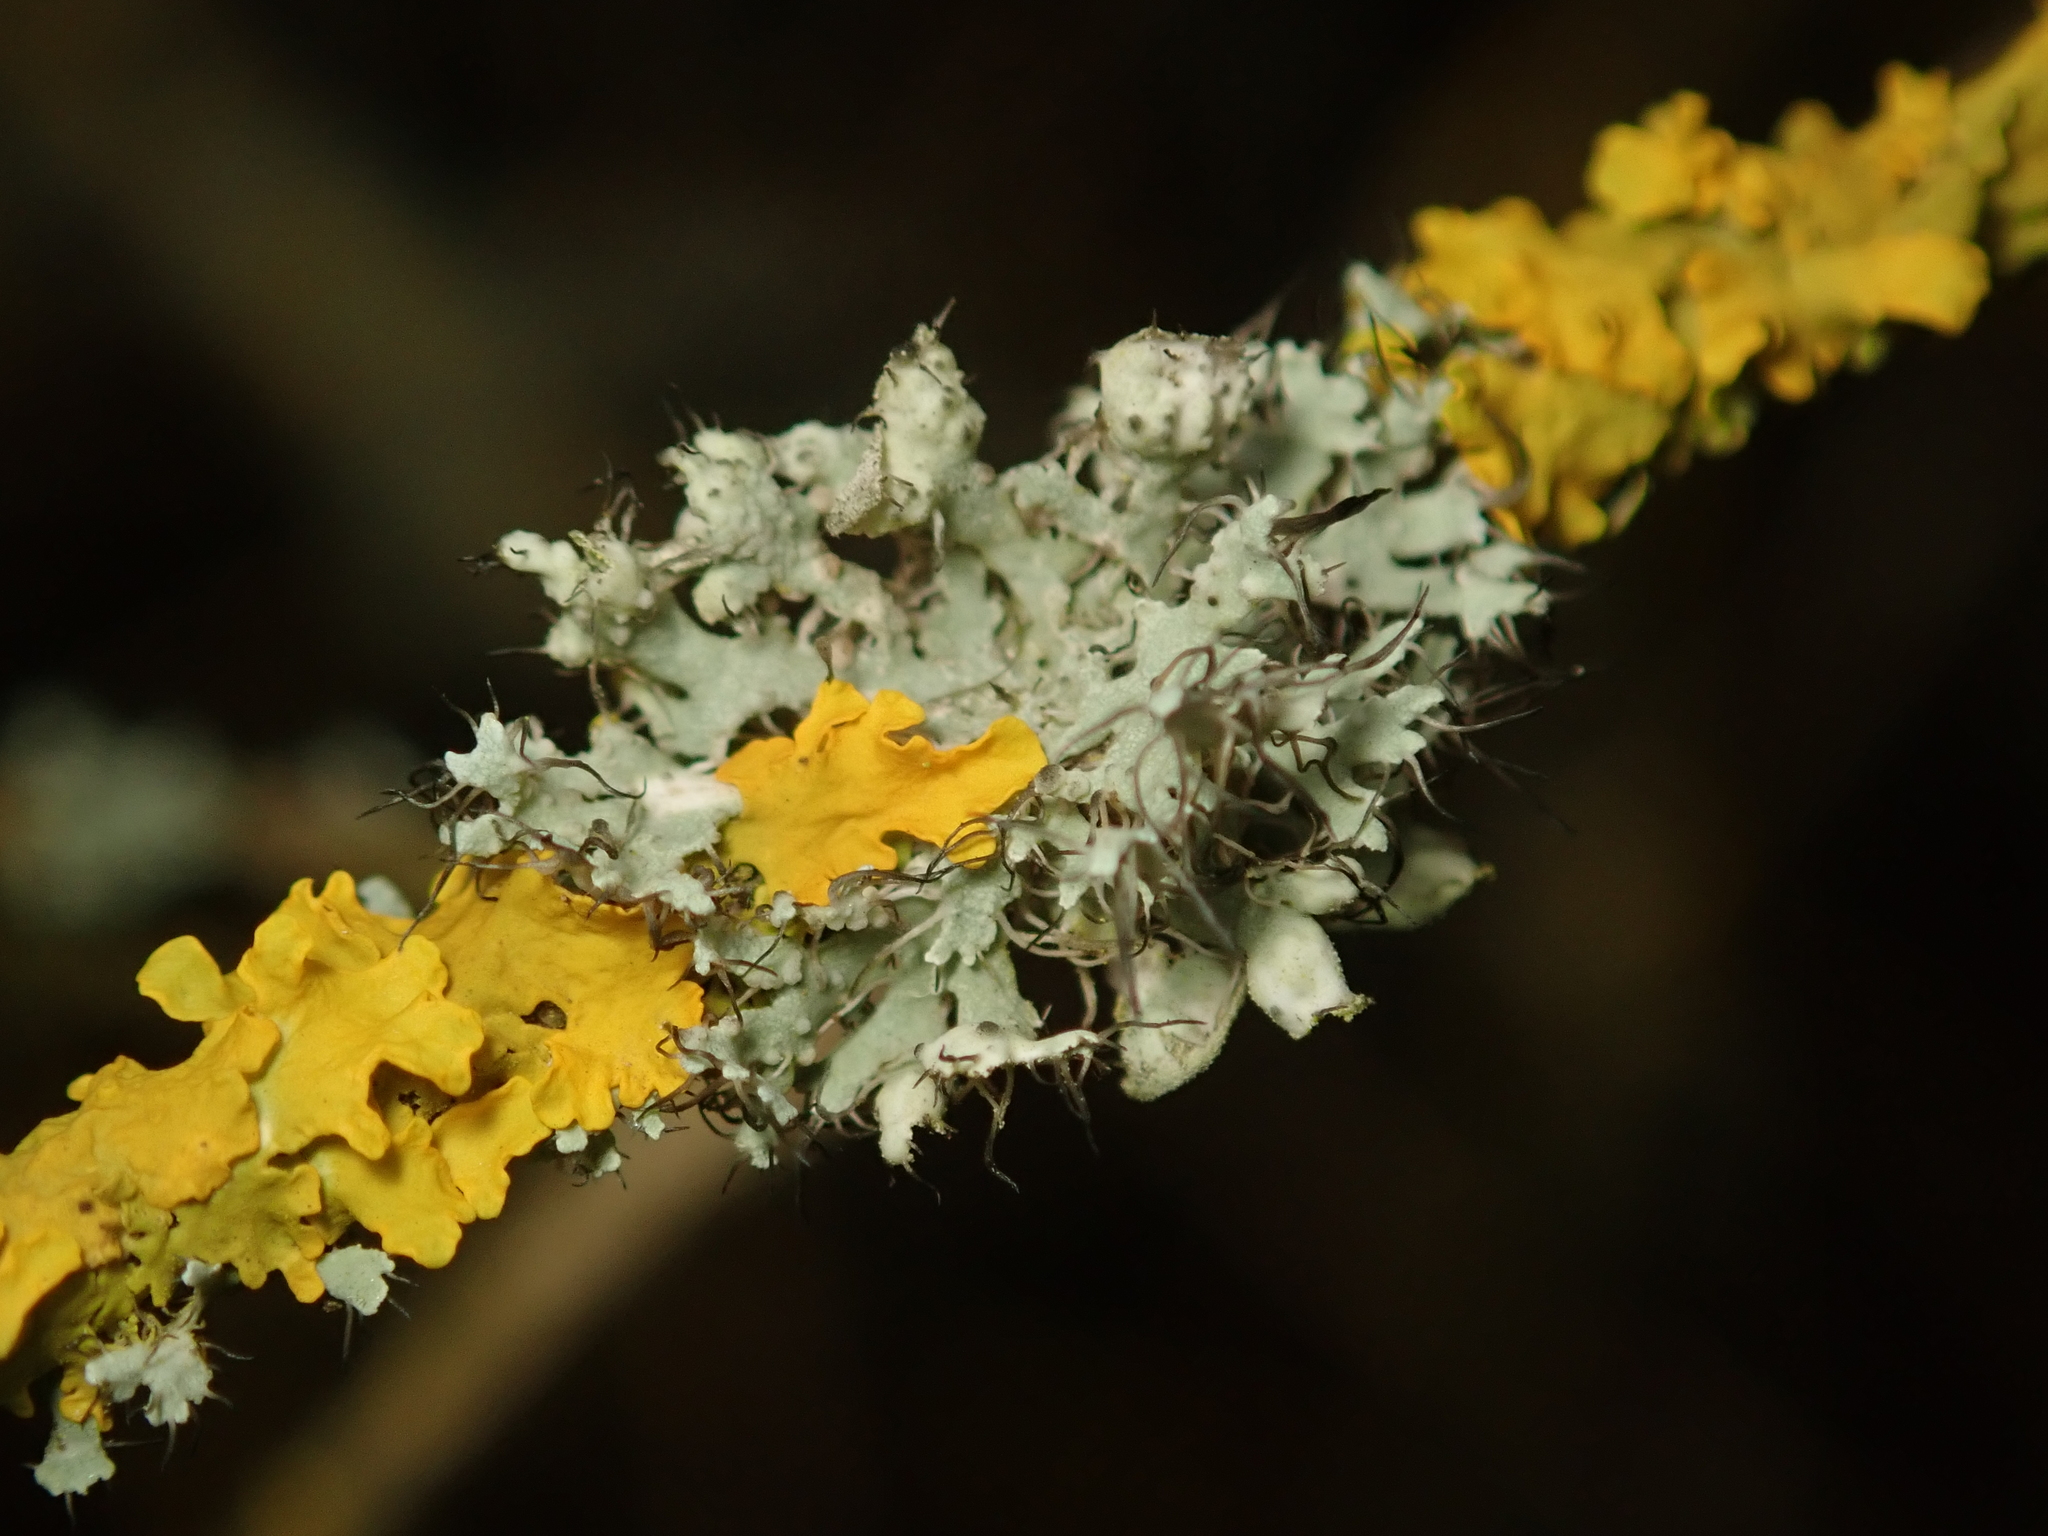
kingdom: Fungi
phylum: Ascomycota
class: Lecanoromycetes
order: Caliciales
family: Physciaceae
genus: Physcia
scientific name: Physcia adscendens
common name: Hooded rosette lichen
